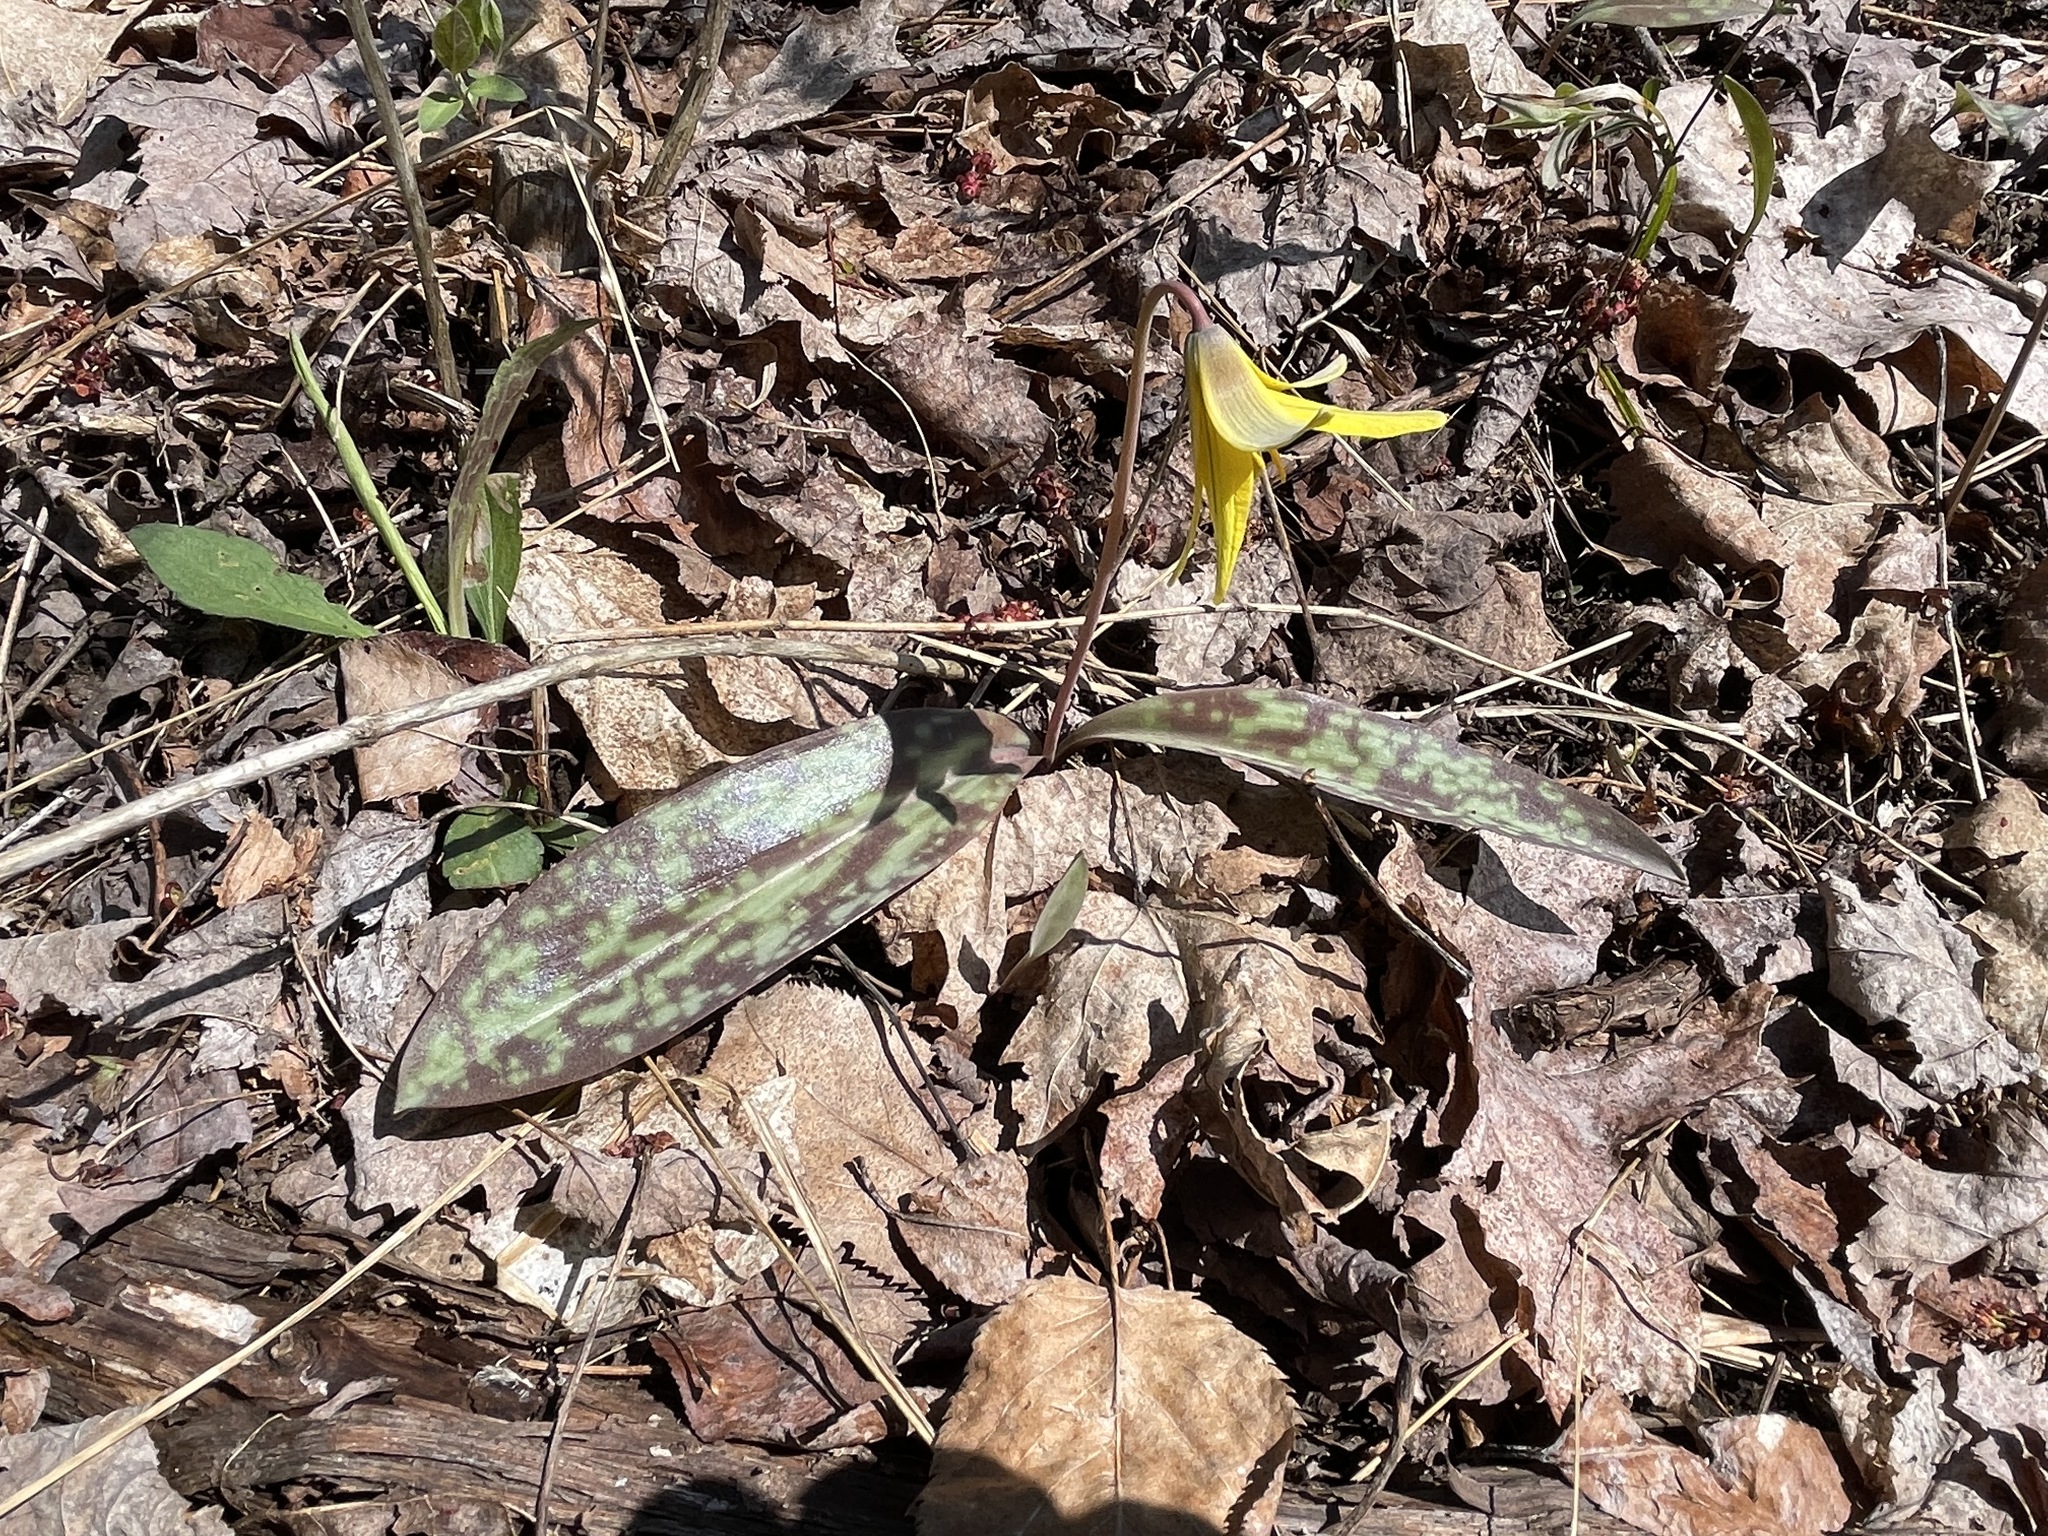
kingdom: Plantae
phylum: Tracheophyta
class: Liliopsida
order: Liliales
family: Liliaceae
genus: Erythronium
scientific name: Erythronium americanum
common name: Yellow adder's-tongue
